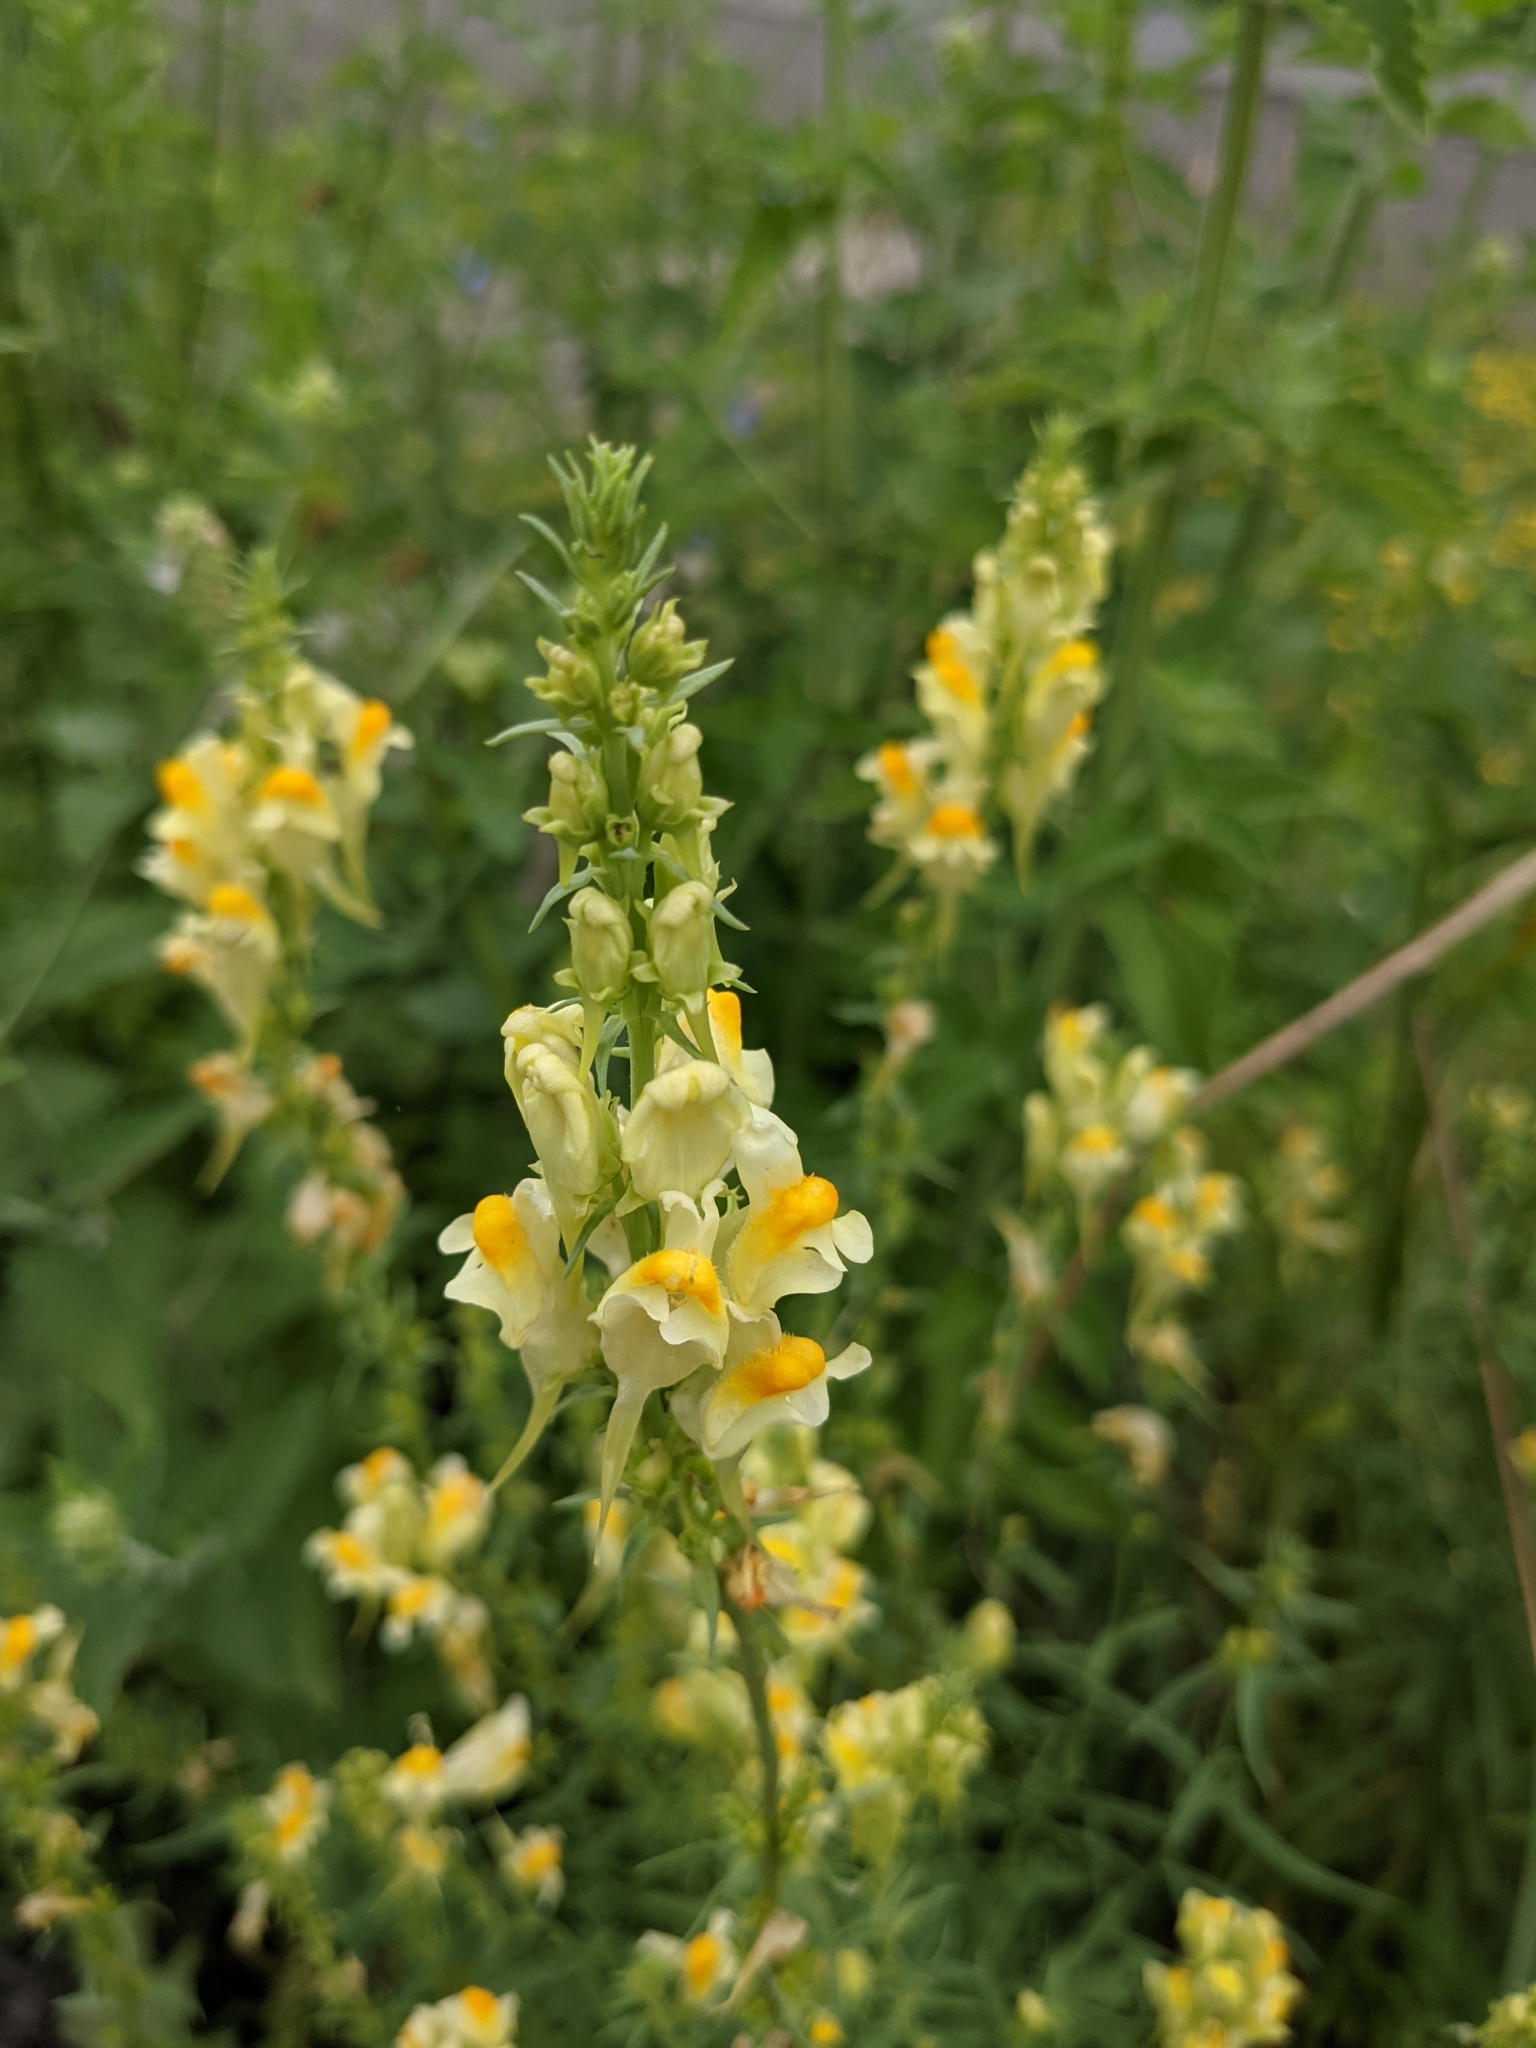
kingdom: Plantae
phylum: Tracheophyta
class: Magnoliopsida
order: Lamiales
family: Plantaginaceae
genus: Linaria
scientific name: Linaria vulgaris
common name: Butter and eggs
